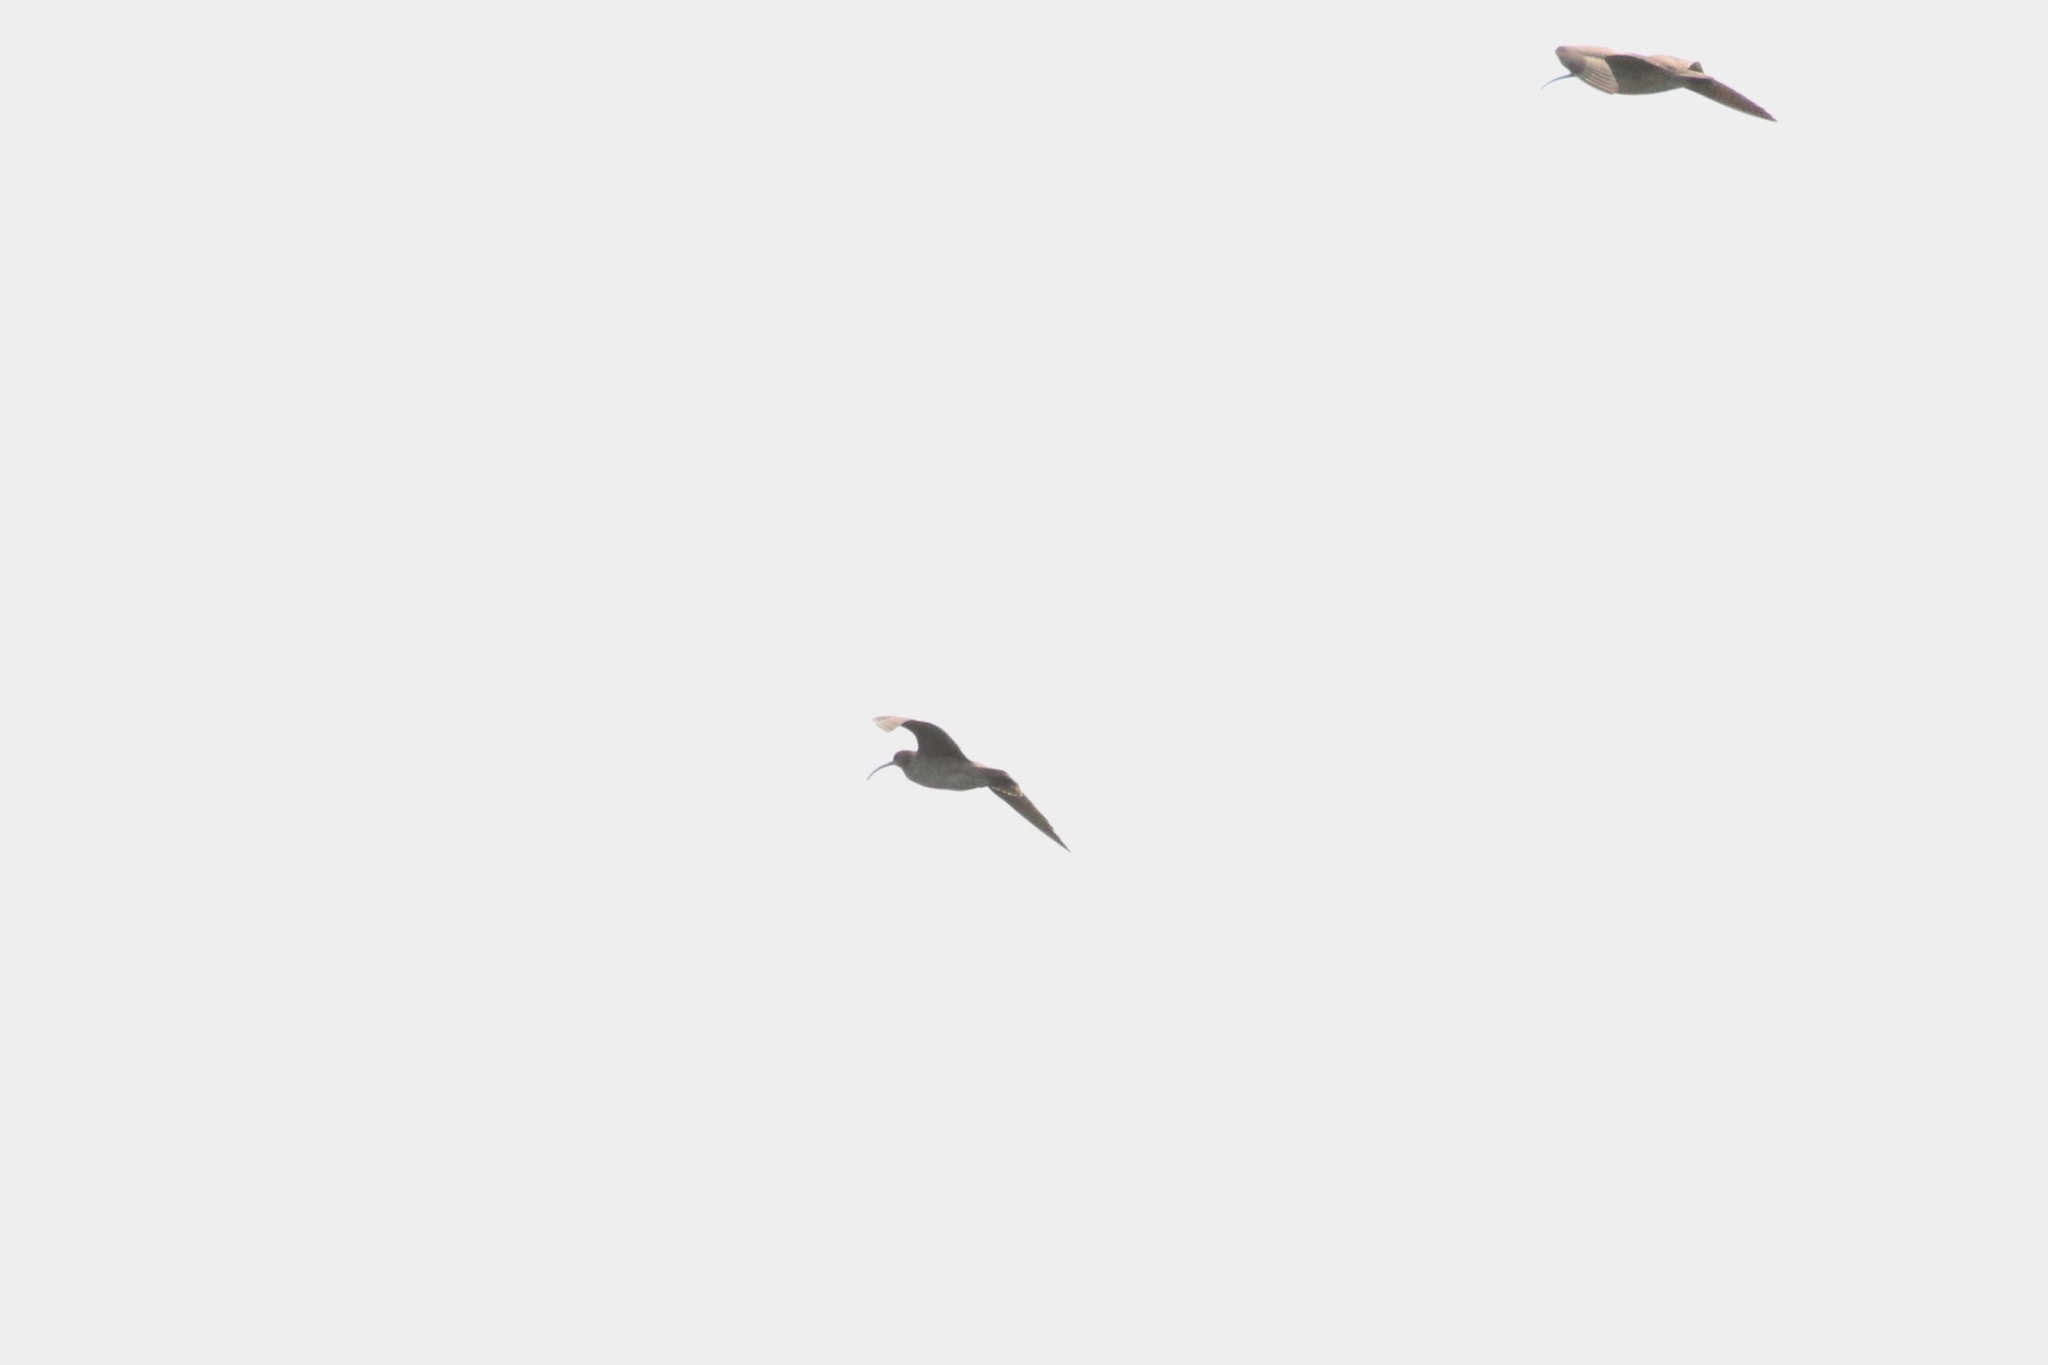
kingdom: Animalia
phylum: Chordata
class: Aves
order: Charadriiformes
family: Scolopacidae
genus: Numenius
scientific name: Numenius phaeopus
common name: Whimbrel
